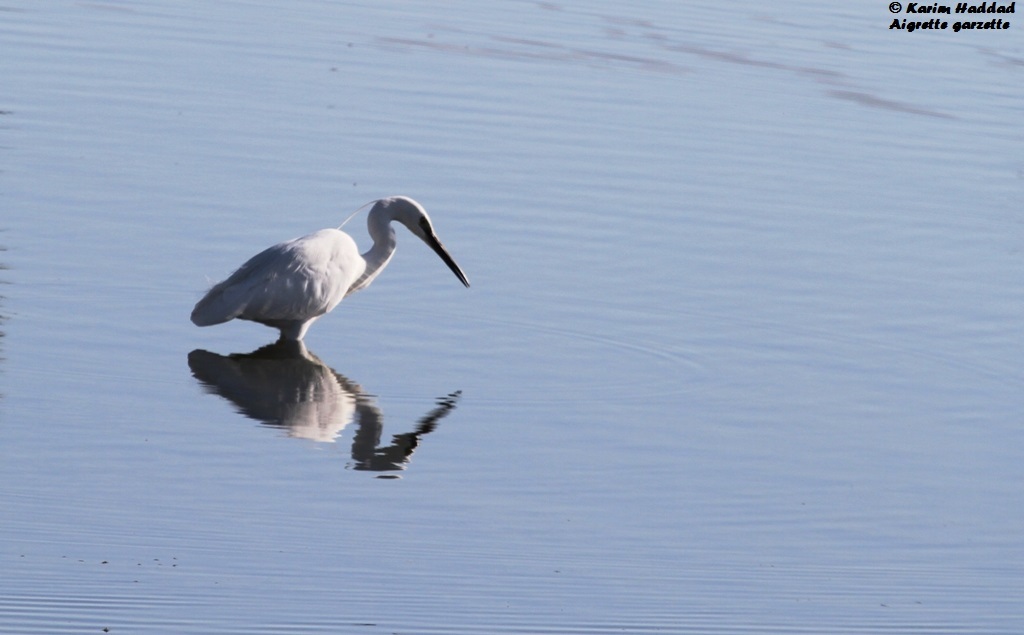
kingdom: Animalia
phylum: Chordata
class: Aves
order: Pelecaniformes
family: Ardeidae
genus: Egretta
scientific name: Egretta garzetta
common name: Little egret
